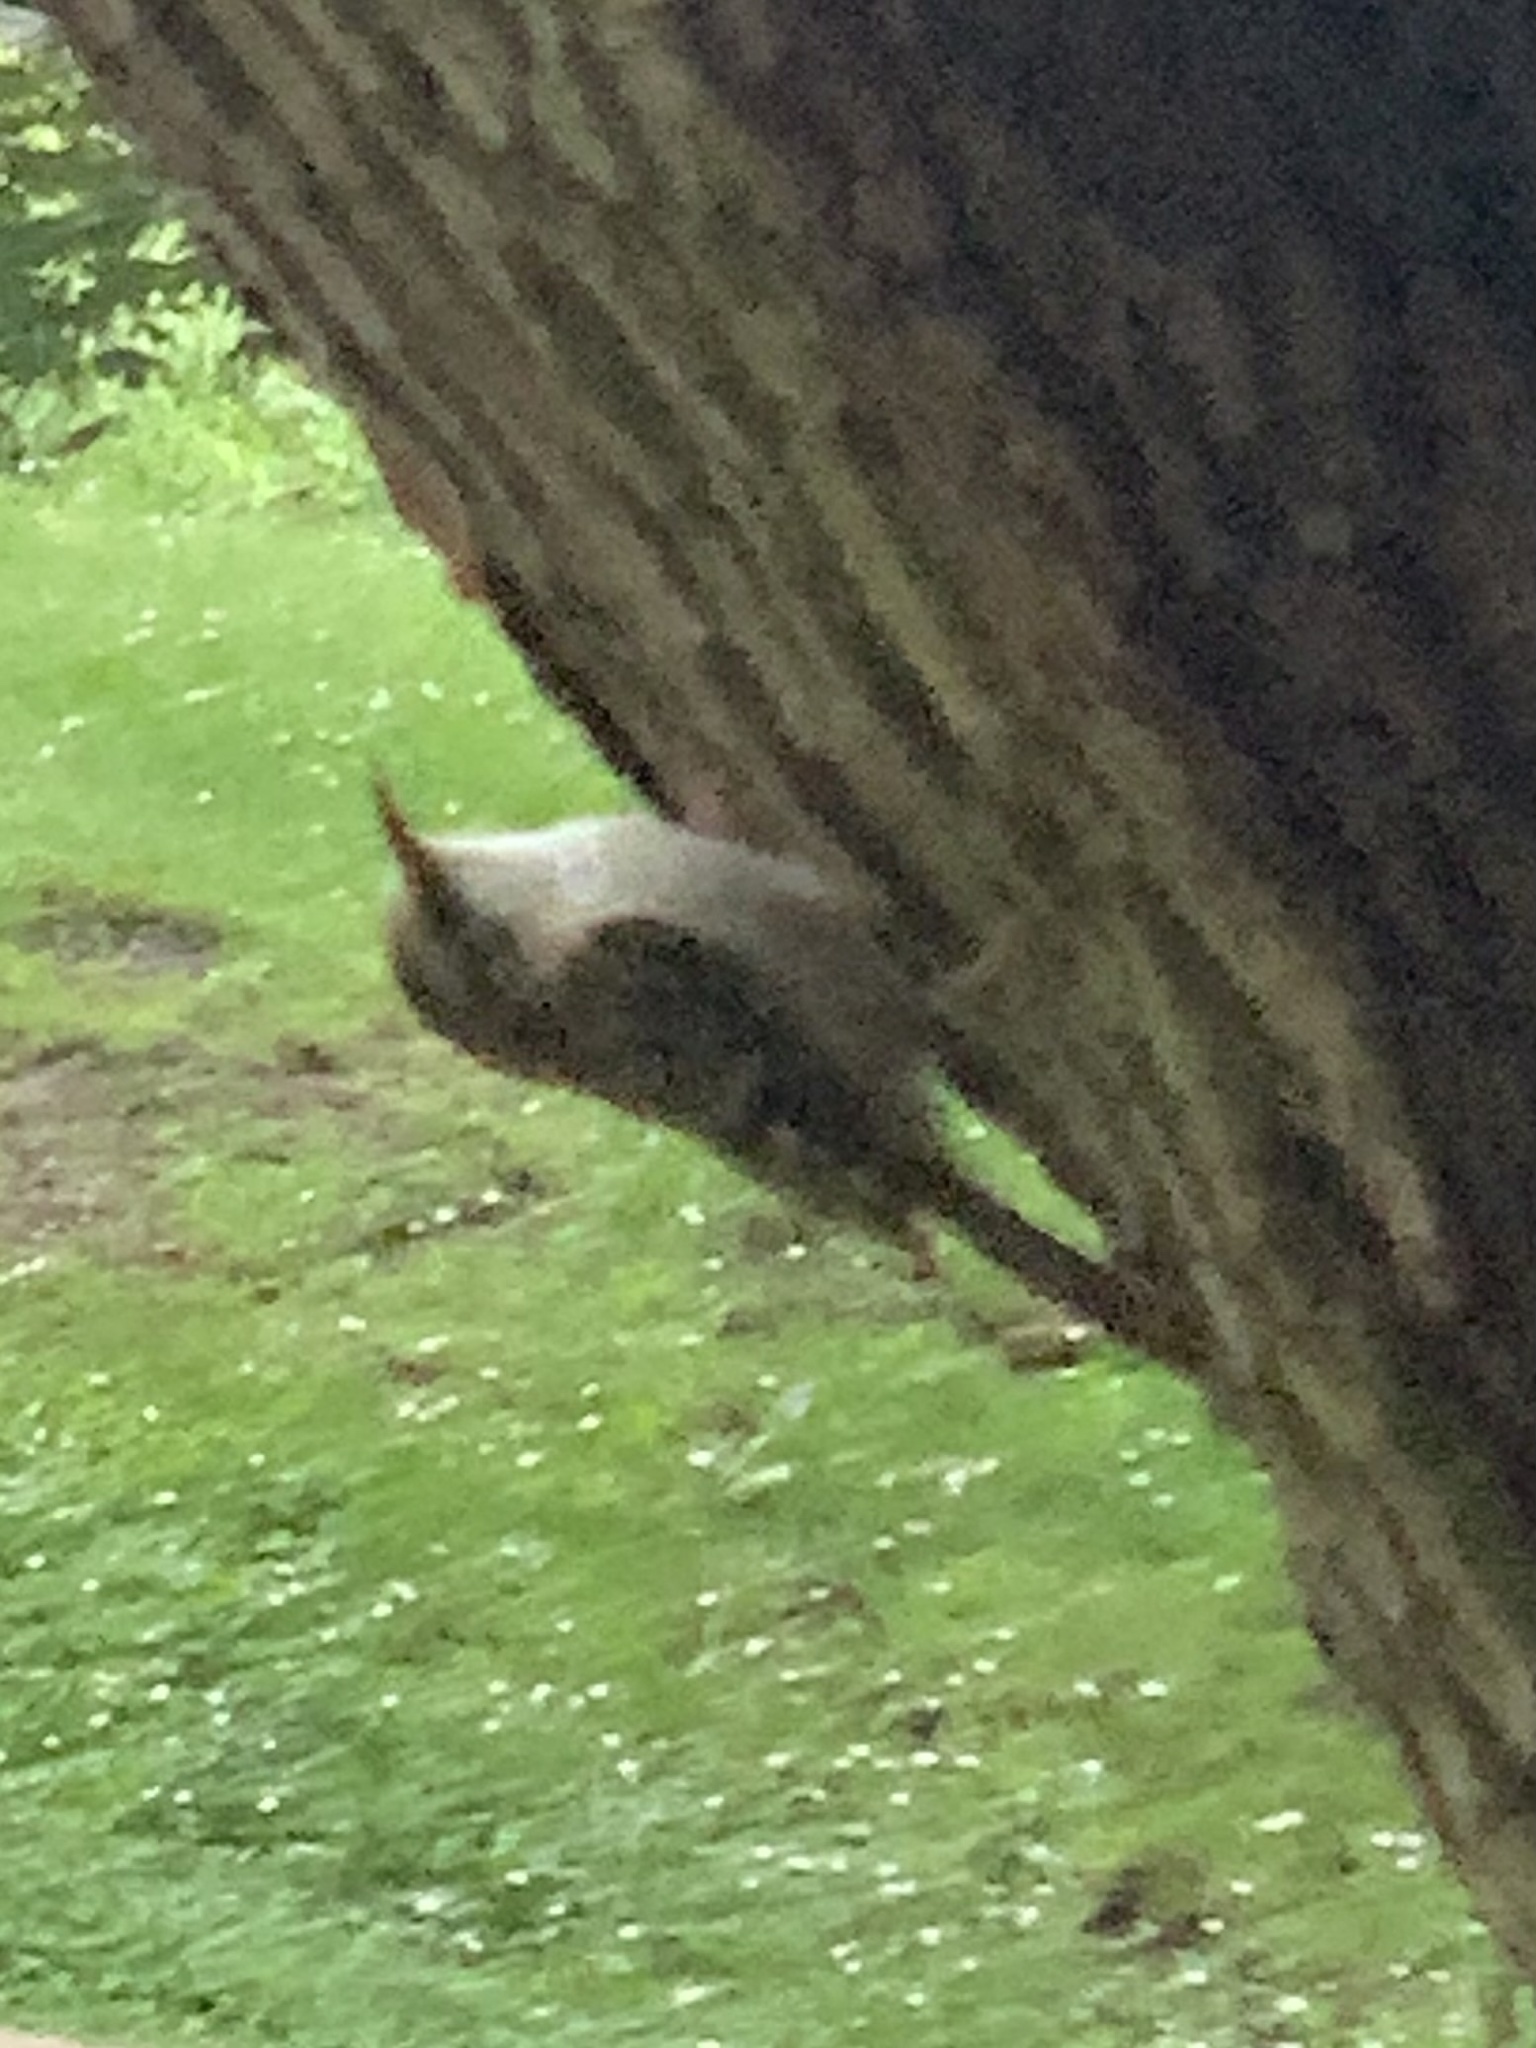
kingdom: Animalia
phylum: Chordata
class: Aves
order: Passeriformes
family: Certhiidae
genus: Certhia
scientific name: Certhia americana
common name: Brown creeper
